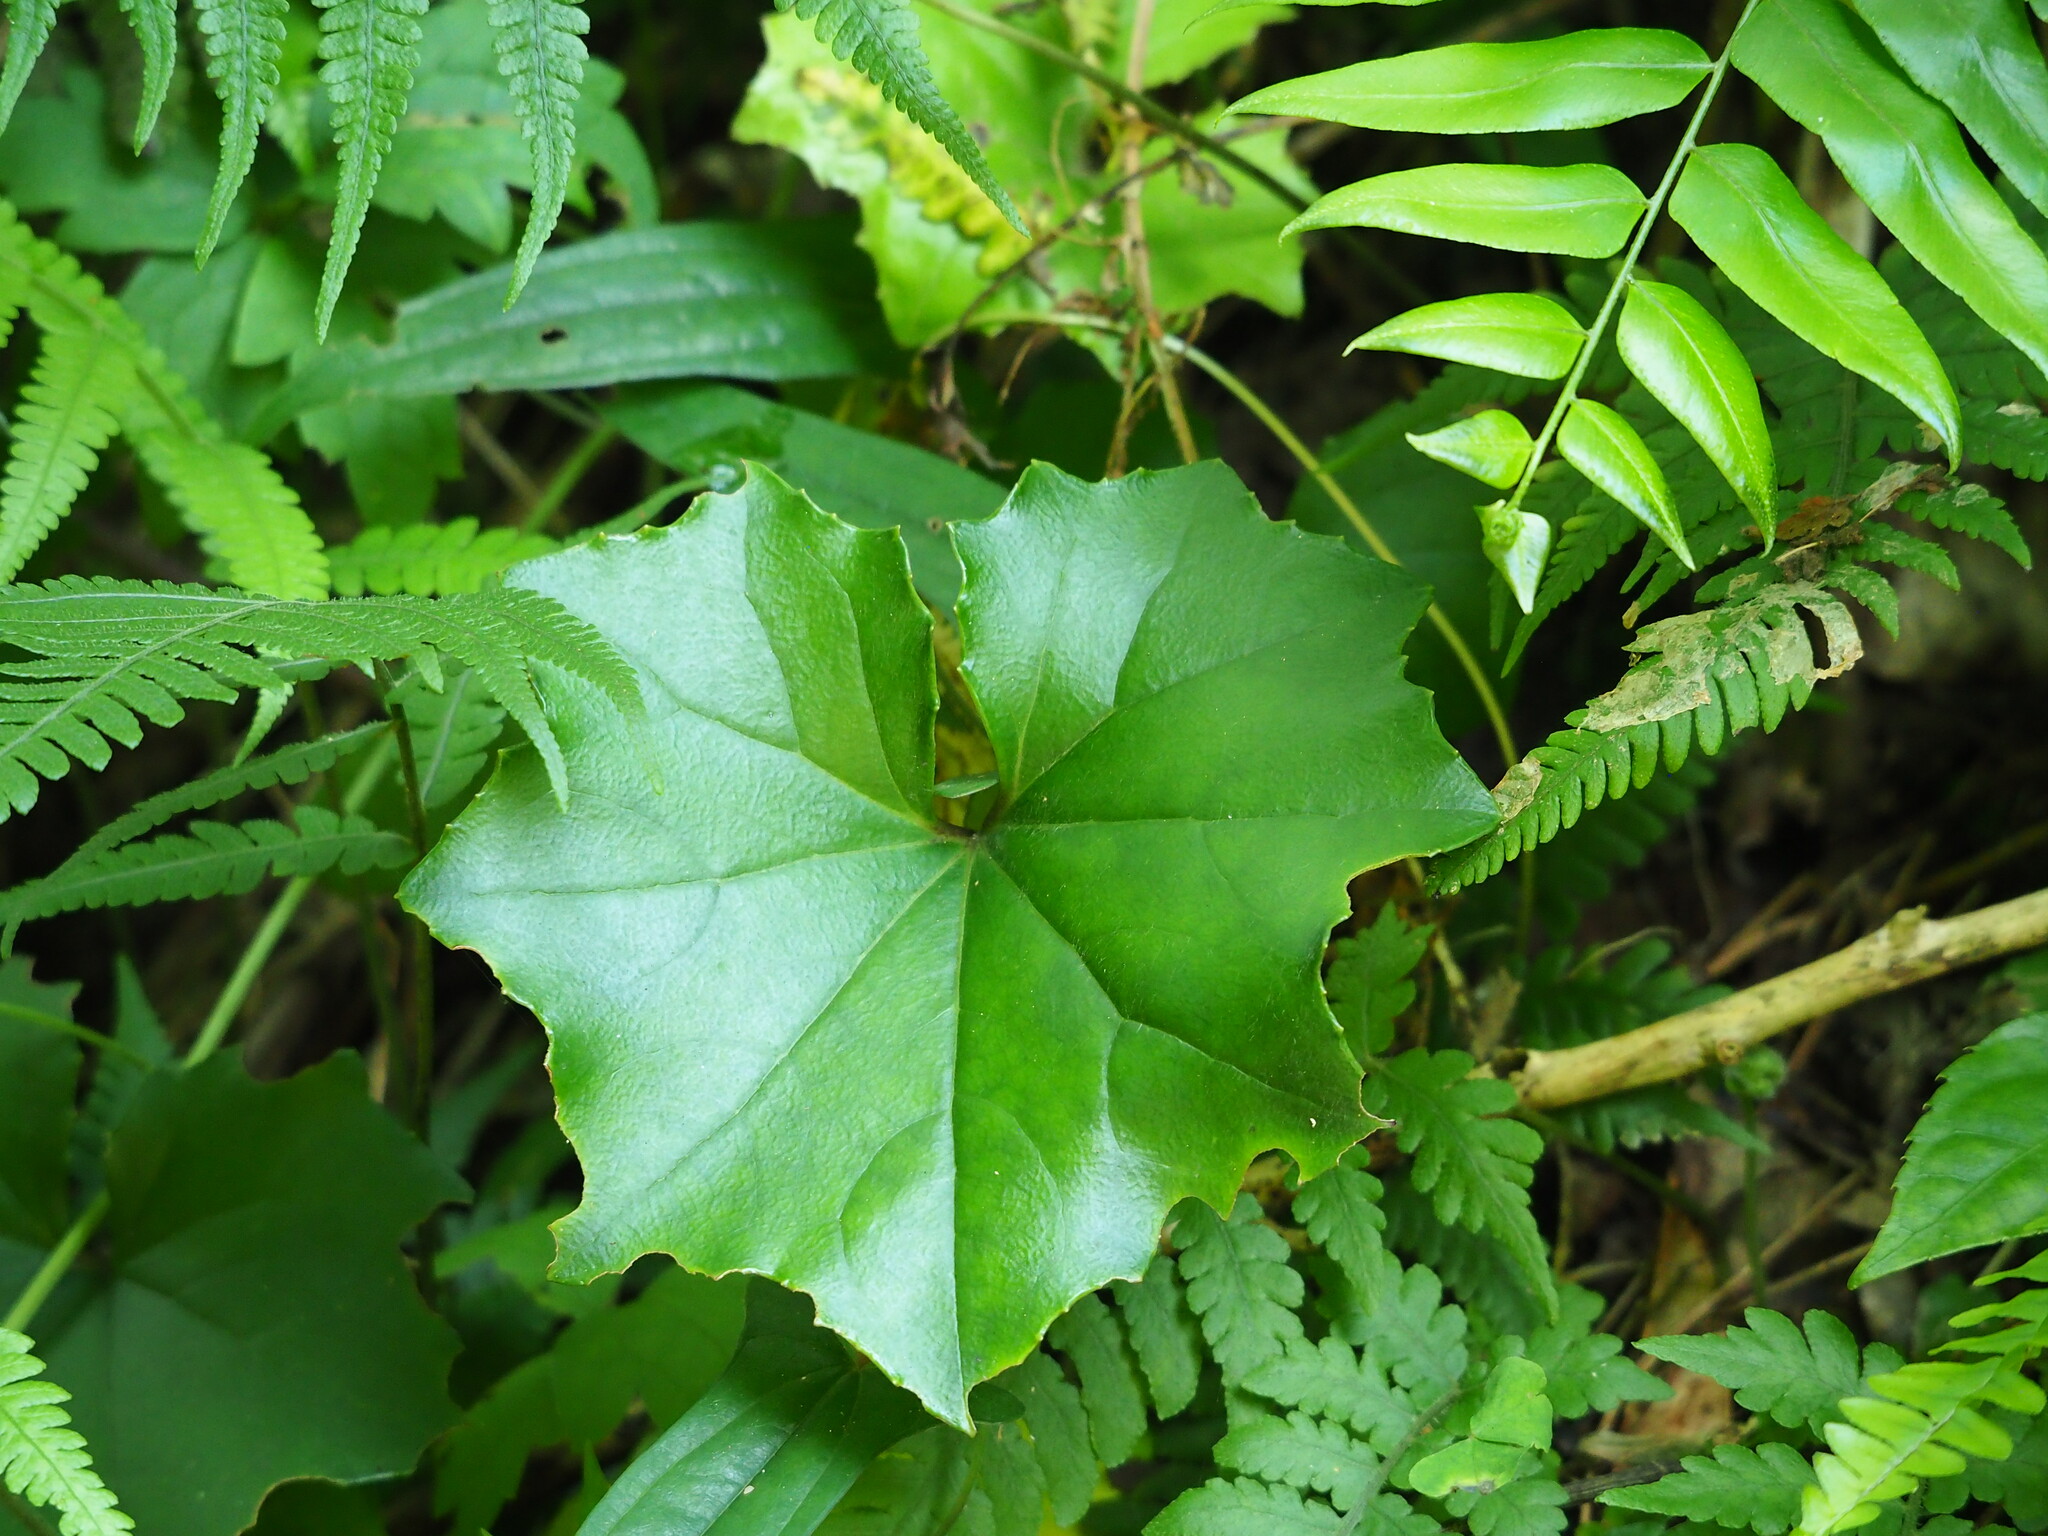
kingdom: Plantae
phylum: Tracheophyta
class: Magnoliopsida
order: Asterales
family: Asteraceae
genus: Farfugium
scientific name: Farfugium japonicum
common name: Leopardplant
